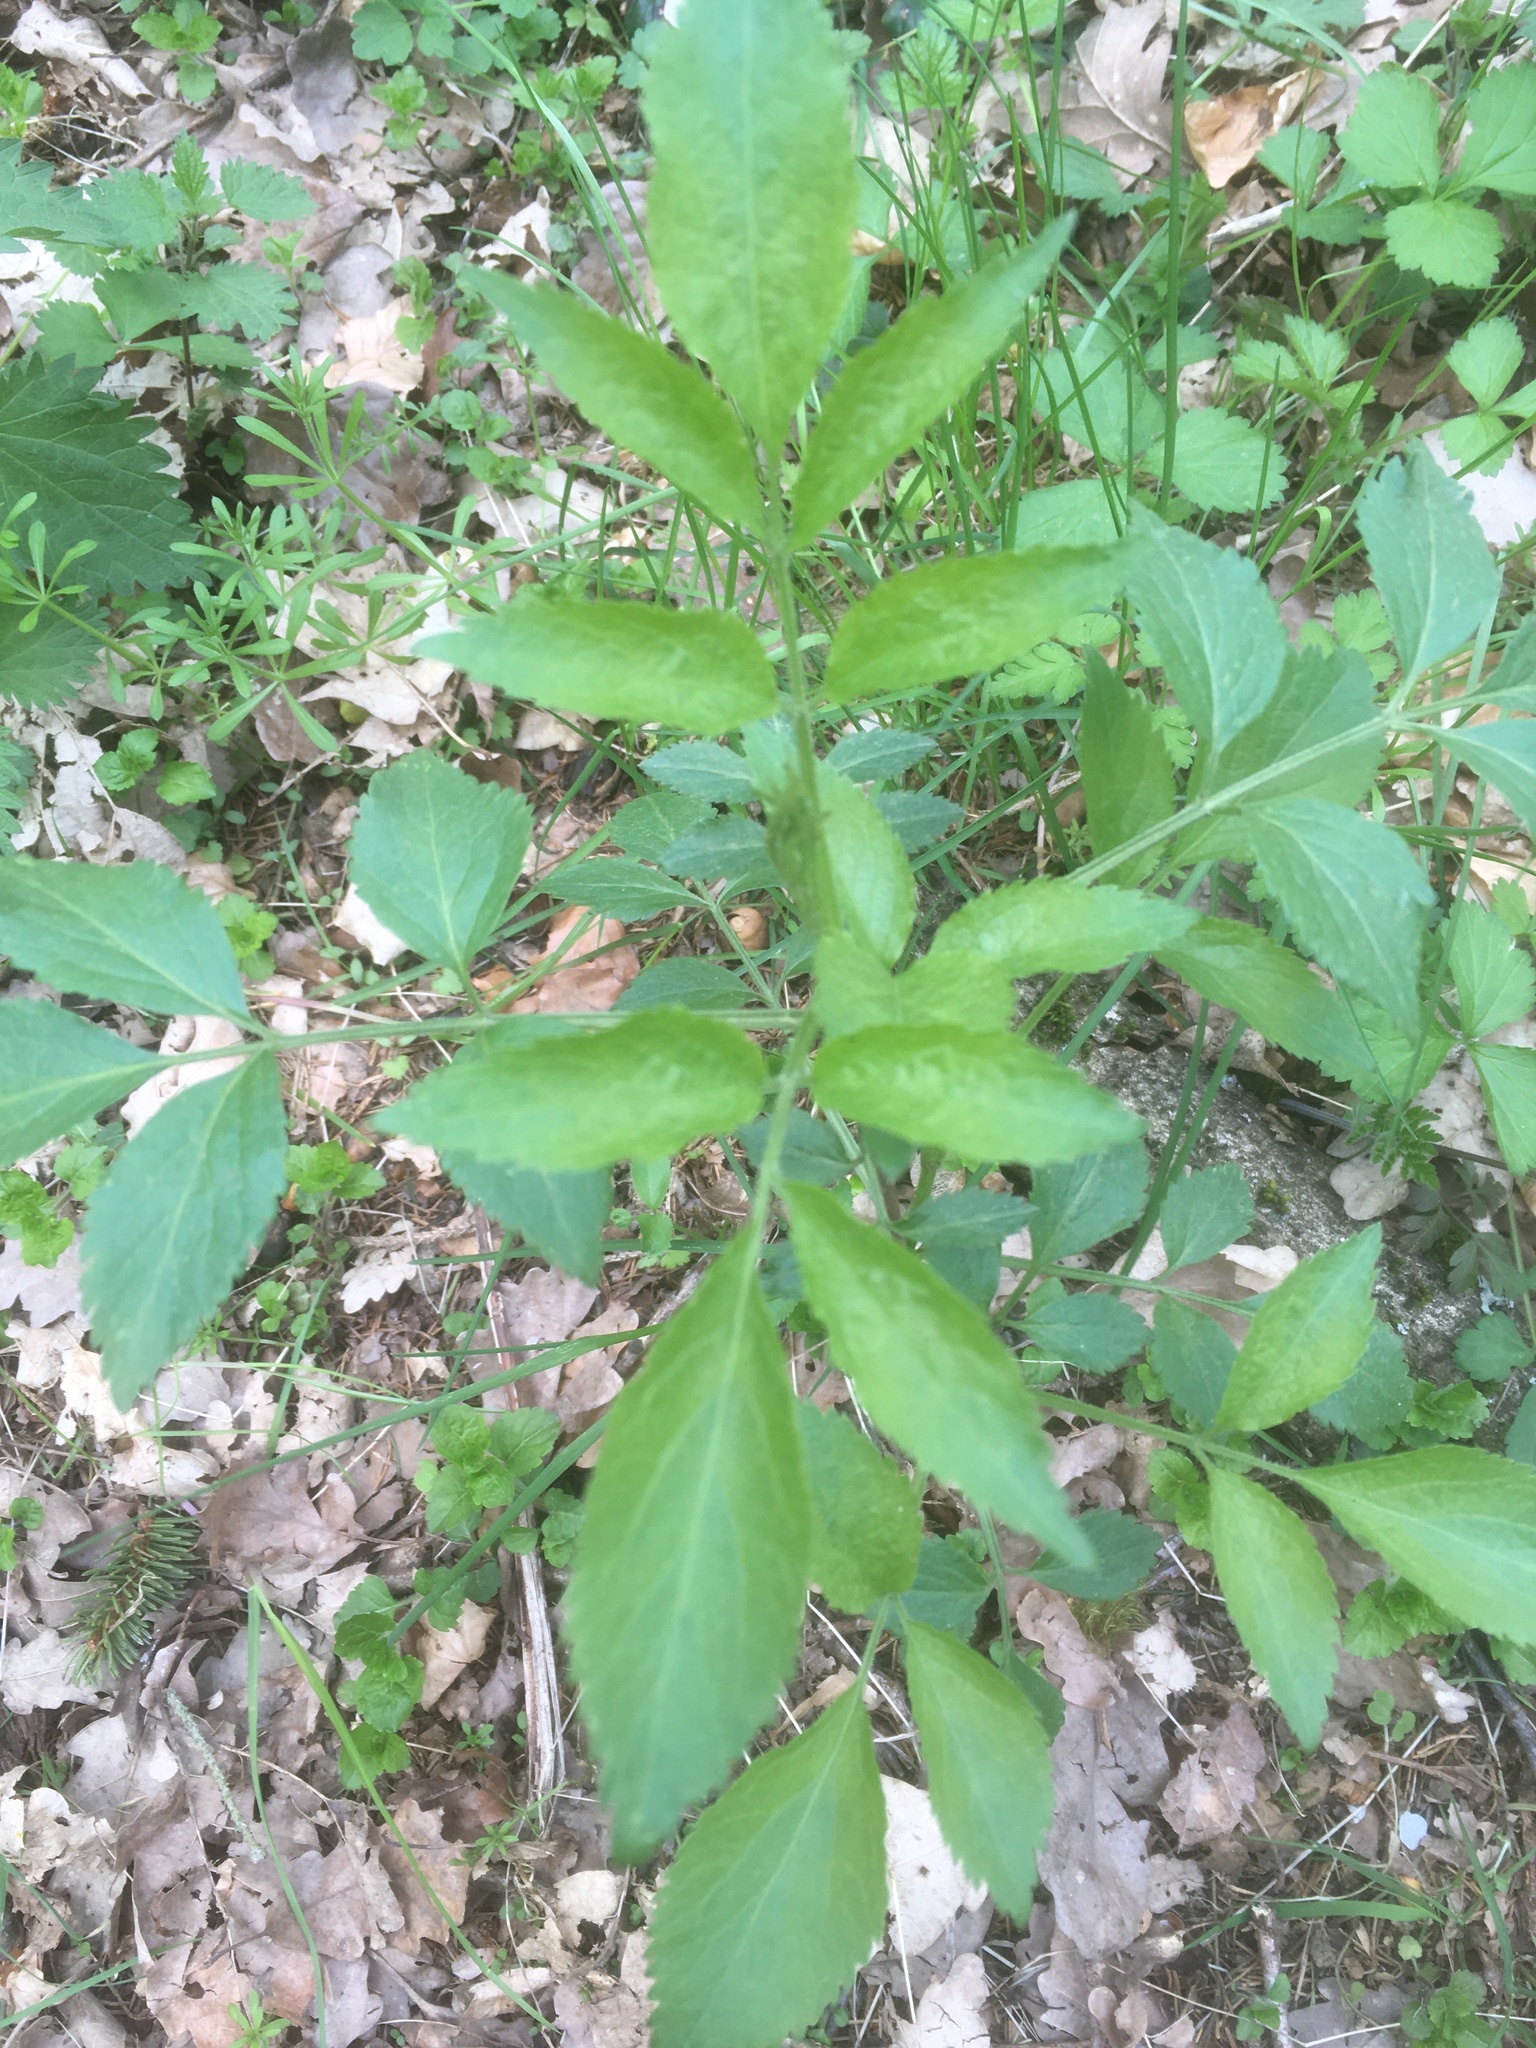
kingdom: Plantae
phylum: Tracheophyta
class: Magnoliopsida
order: Dipsacales
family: Viburnaceae
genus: Sambucus
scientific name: Sambucus nigra
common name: Elder
